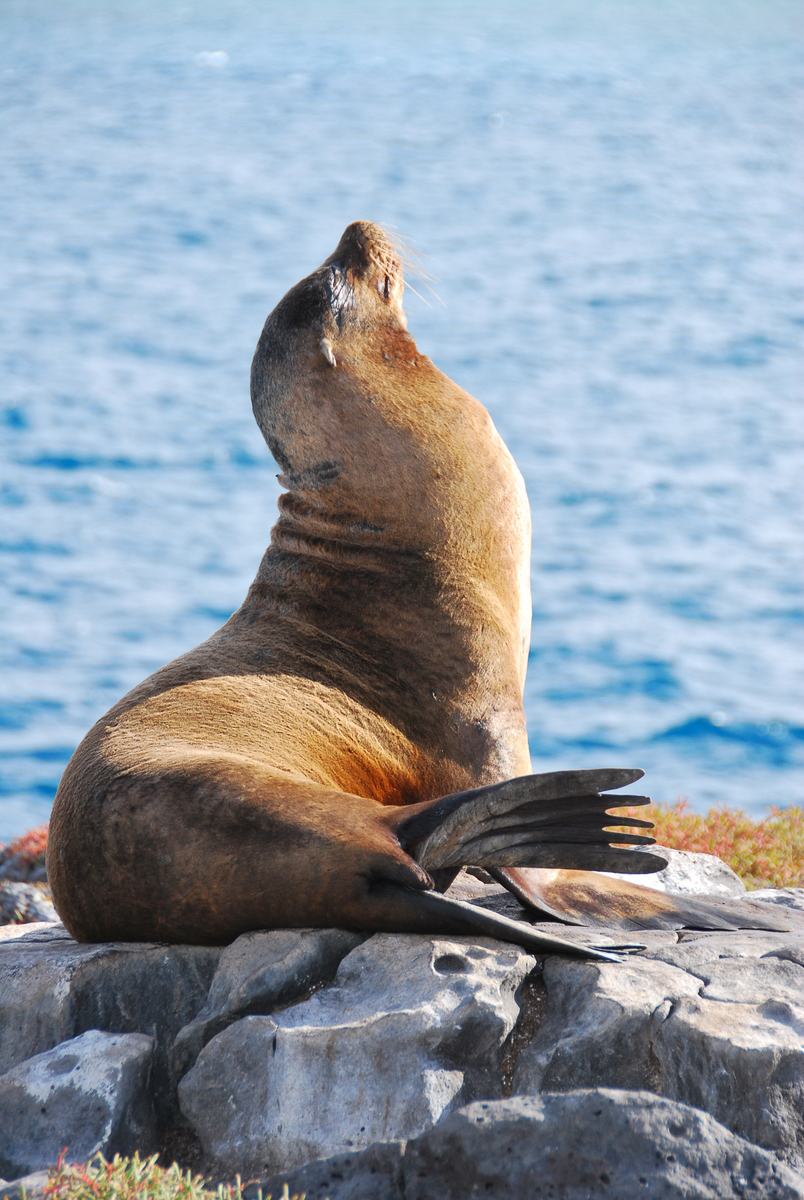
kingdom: Animalia
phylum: Chordata
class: Mammalia
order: Carnivora
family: Otariidae
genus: Zalophus
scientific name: Zalophus wollebaeki
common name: Galapagos sea lion
